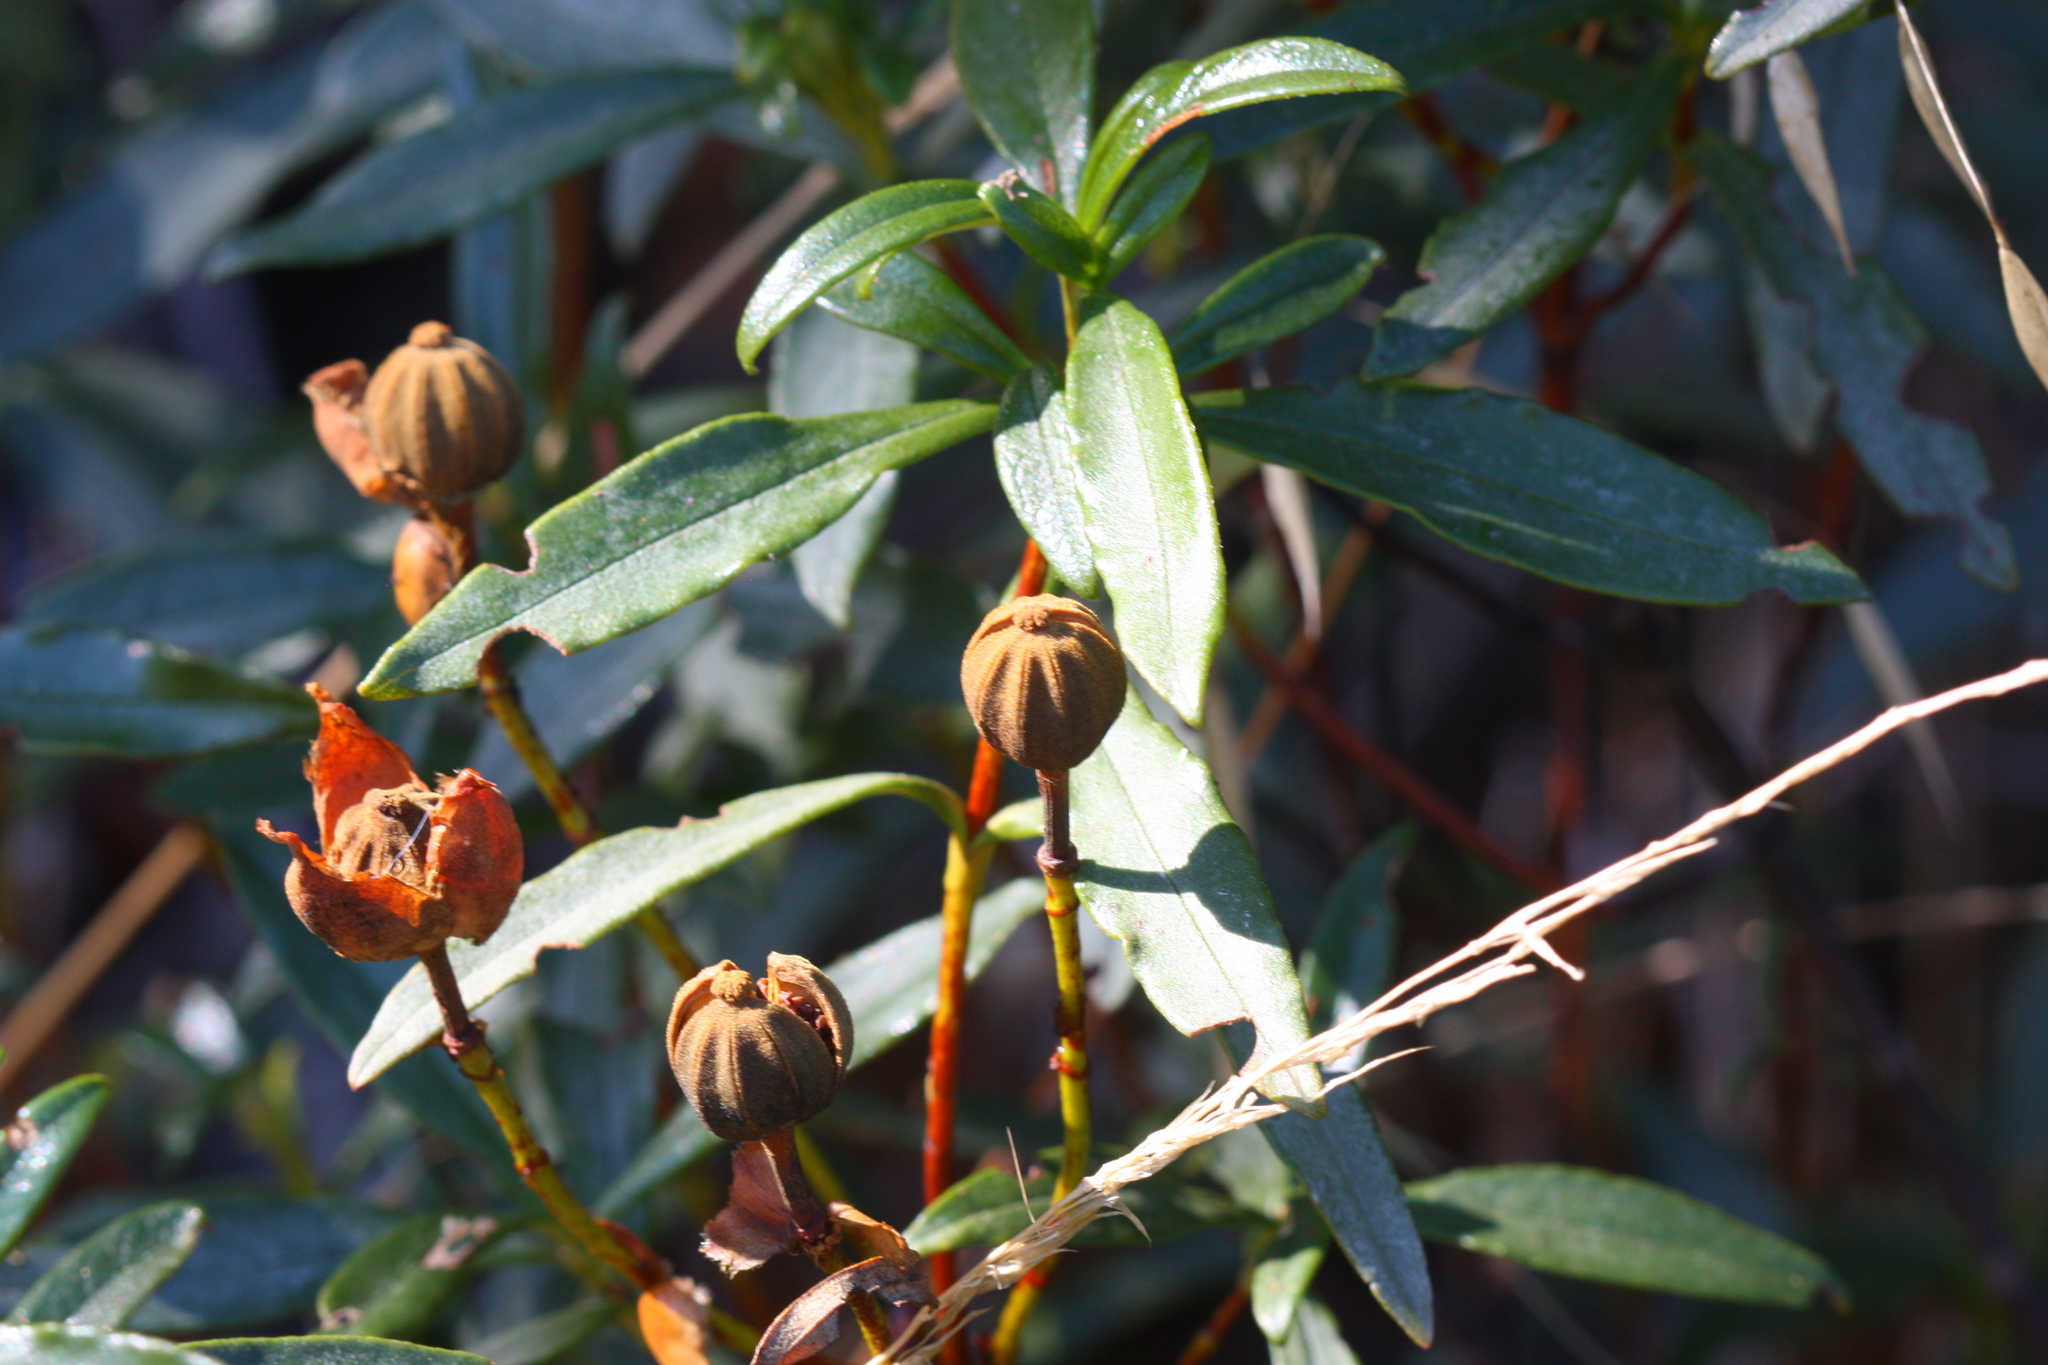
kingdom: Plantae
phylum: Tracheophyta
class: Magnoliopsida
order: Malvales
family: Cistaceae
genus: Cistus
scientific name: Cistus ladanifer
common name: Common gum cistus
